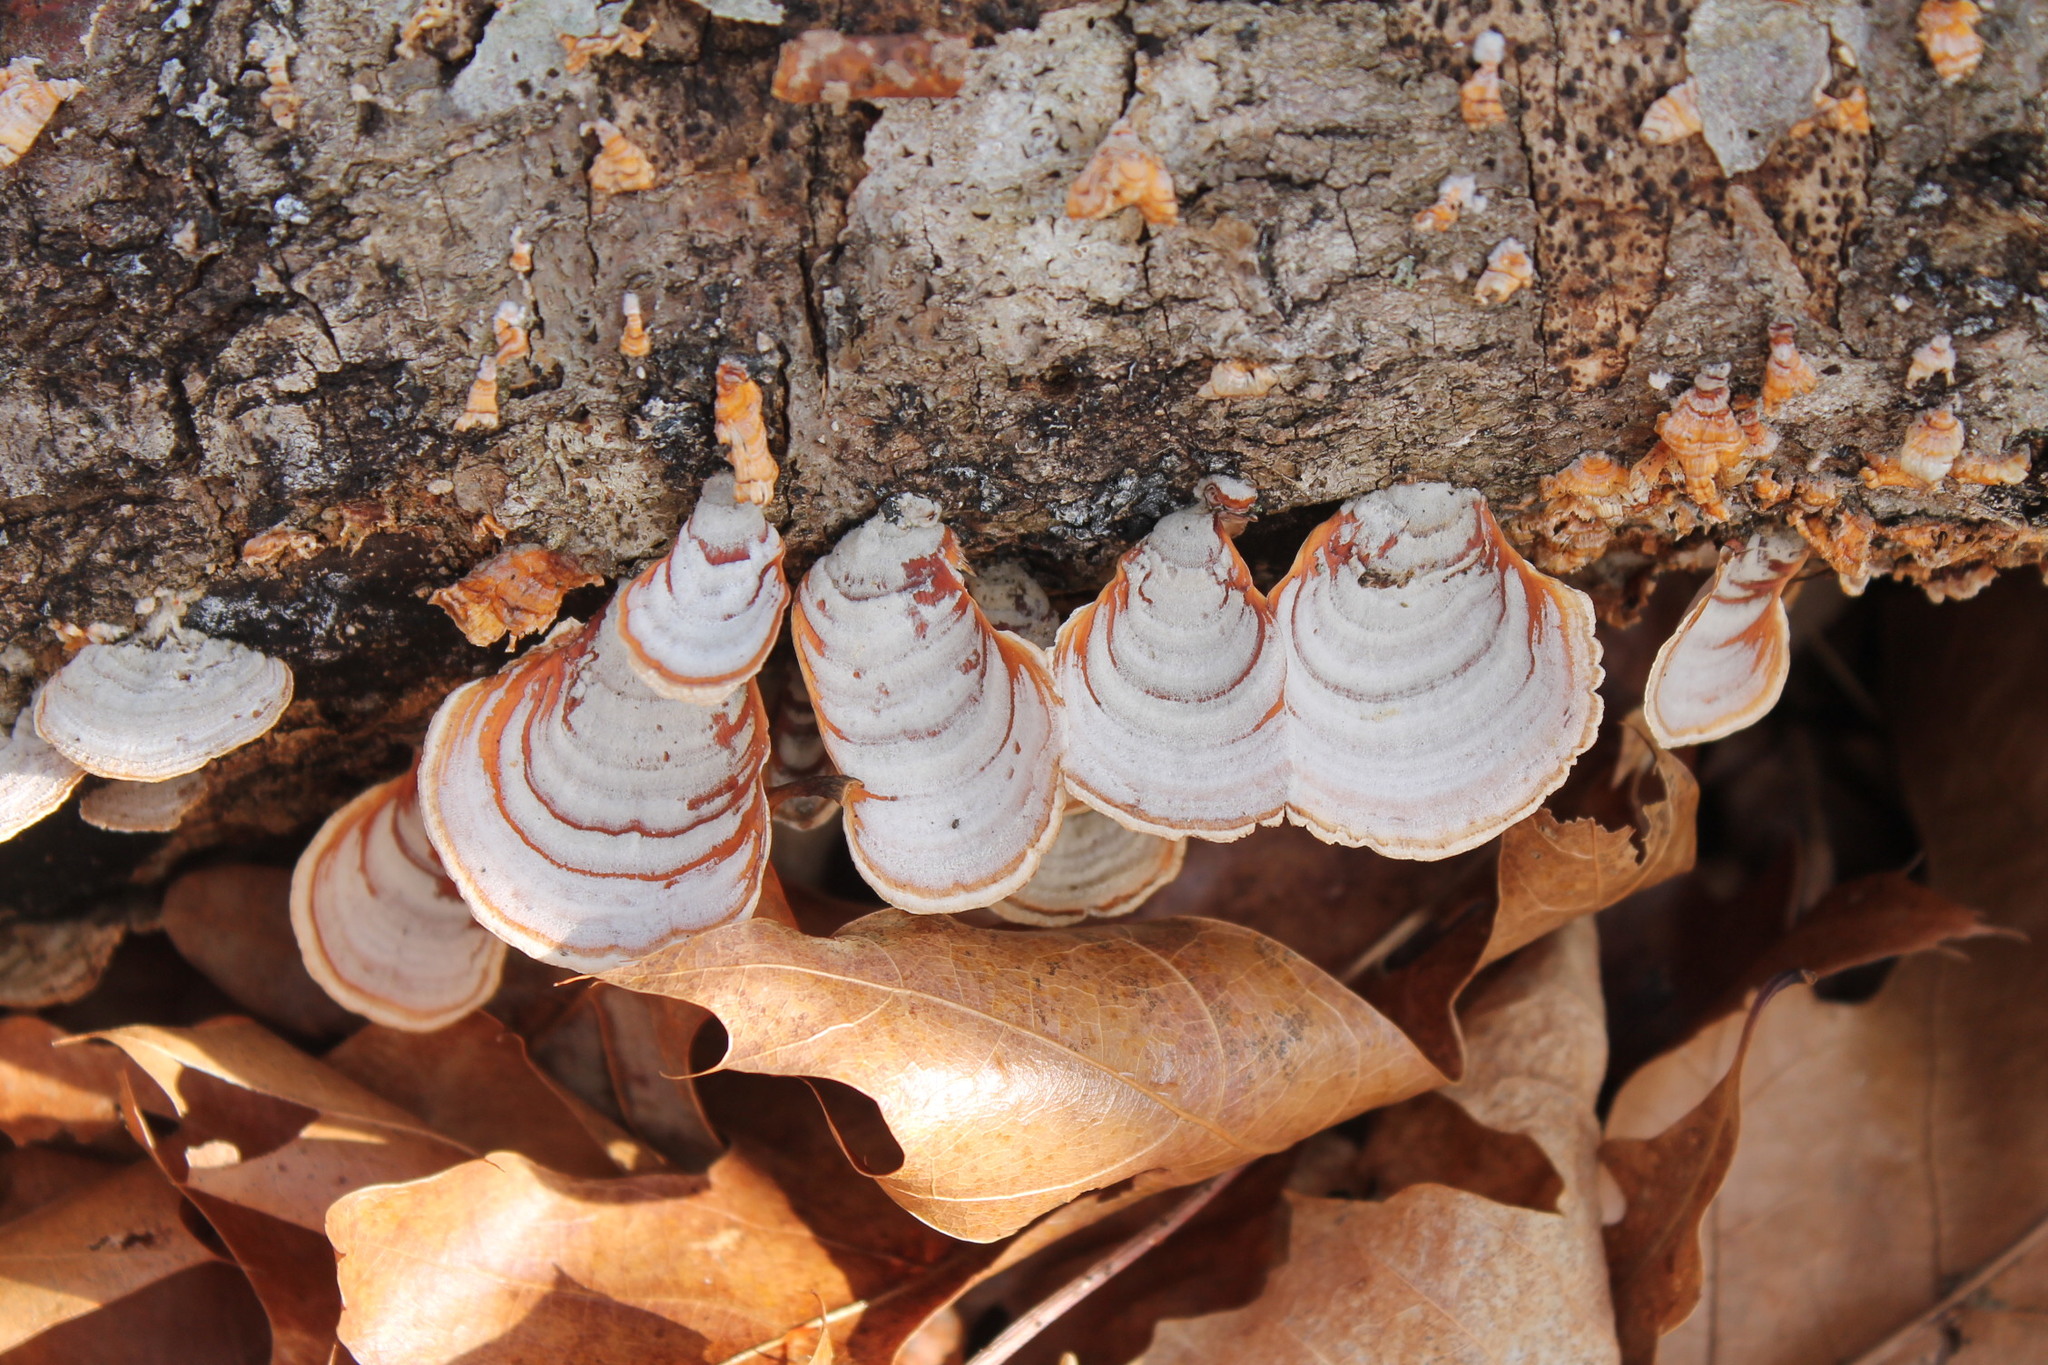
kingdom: Fungi
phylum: Basidiomycota
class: Agaricomycetes
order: Russulales
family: Stereaceae
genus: Stereum
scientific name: Stereum lobatum
